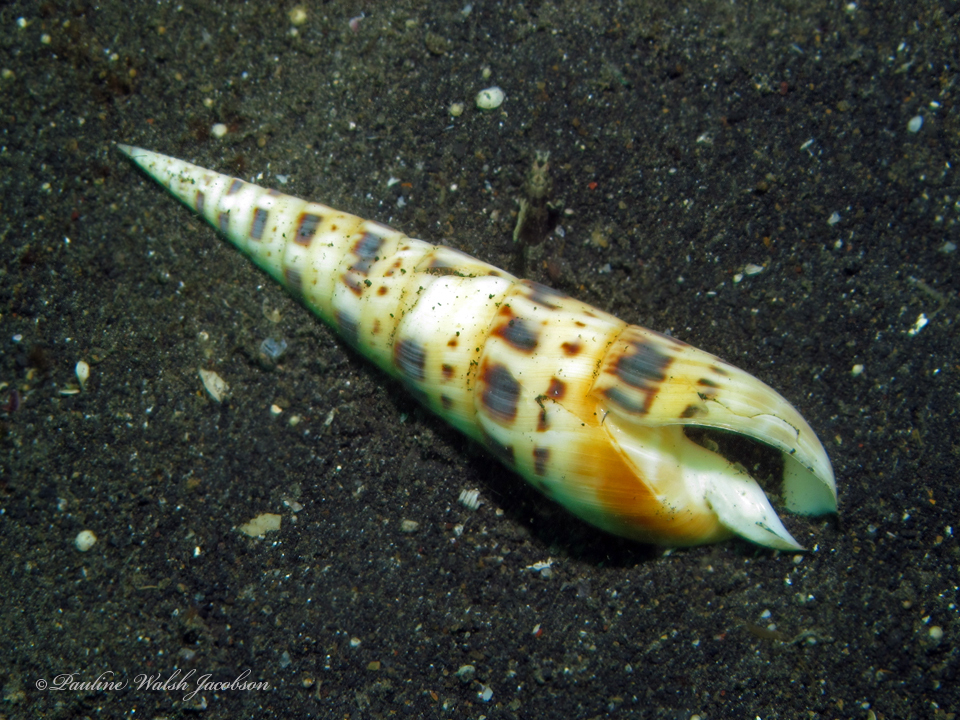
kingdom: Animalia
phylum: Mollusca
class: Gastropoda
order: Neogastropoda
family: Terebridae
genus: Oxymeris
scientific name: Oxymeris maculata
